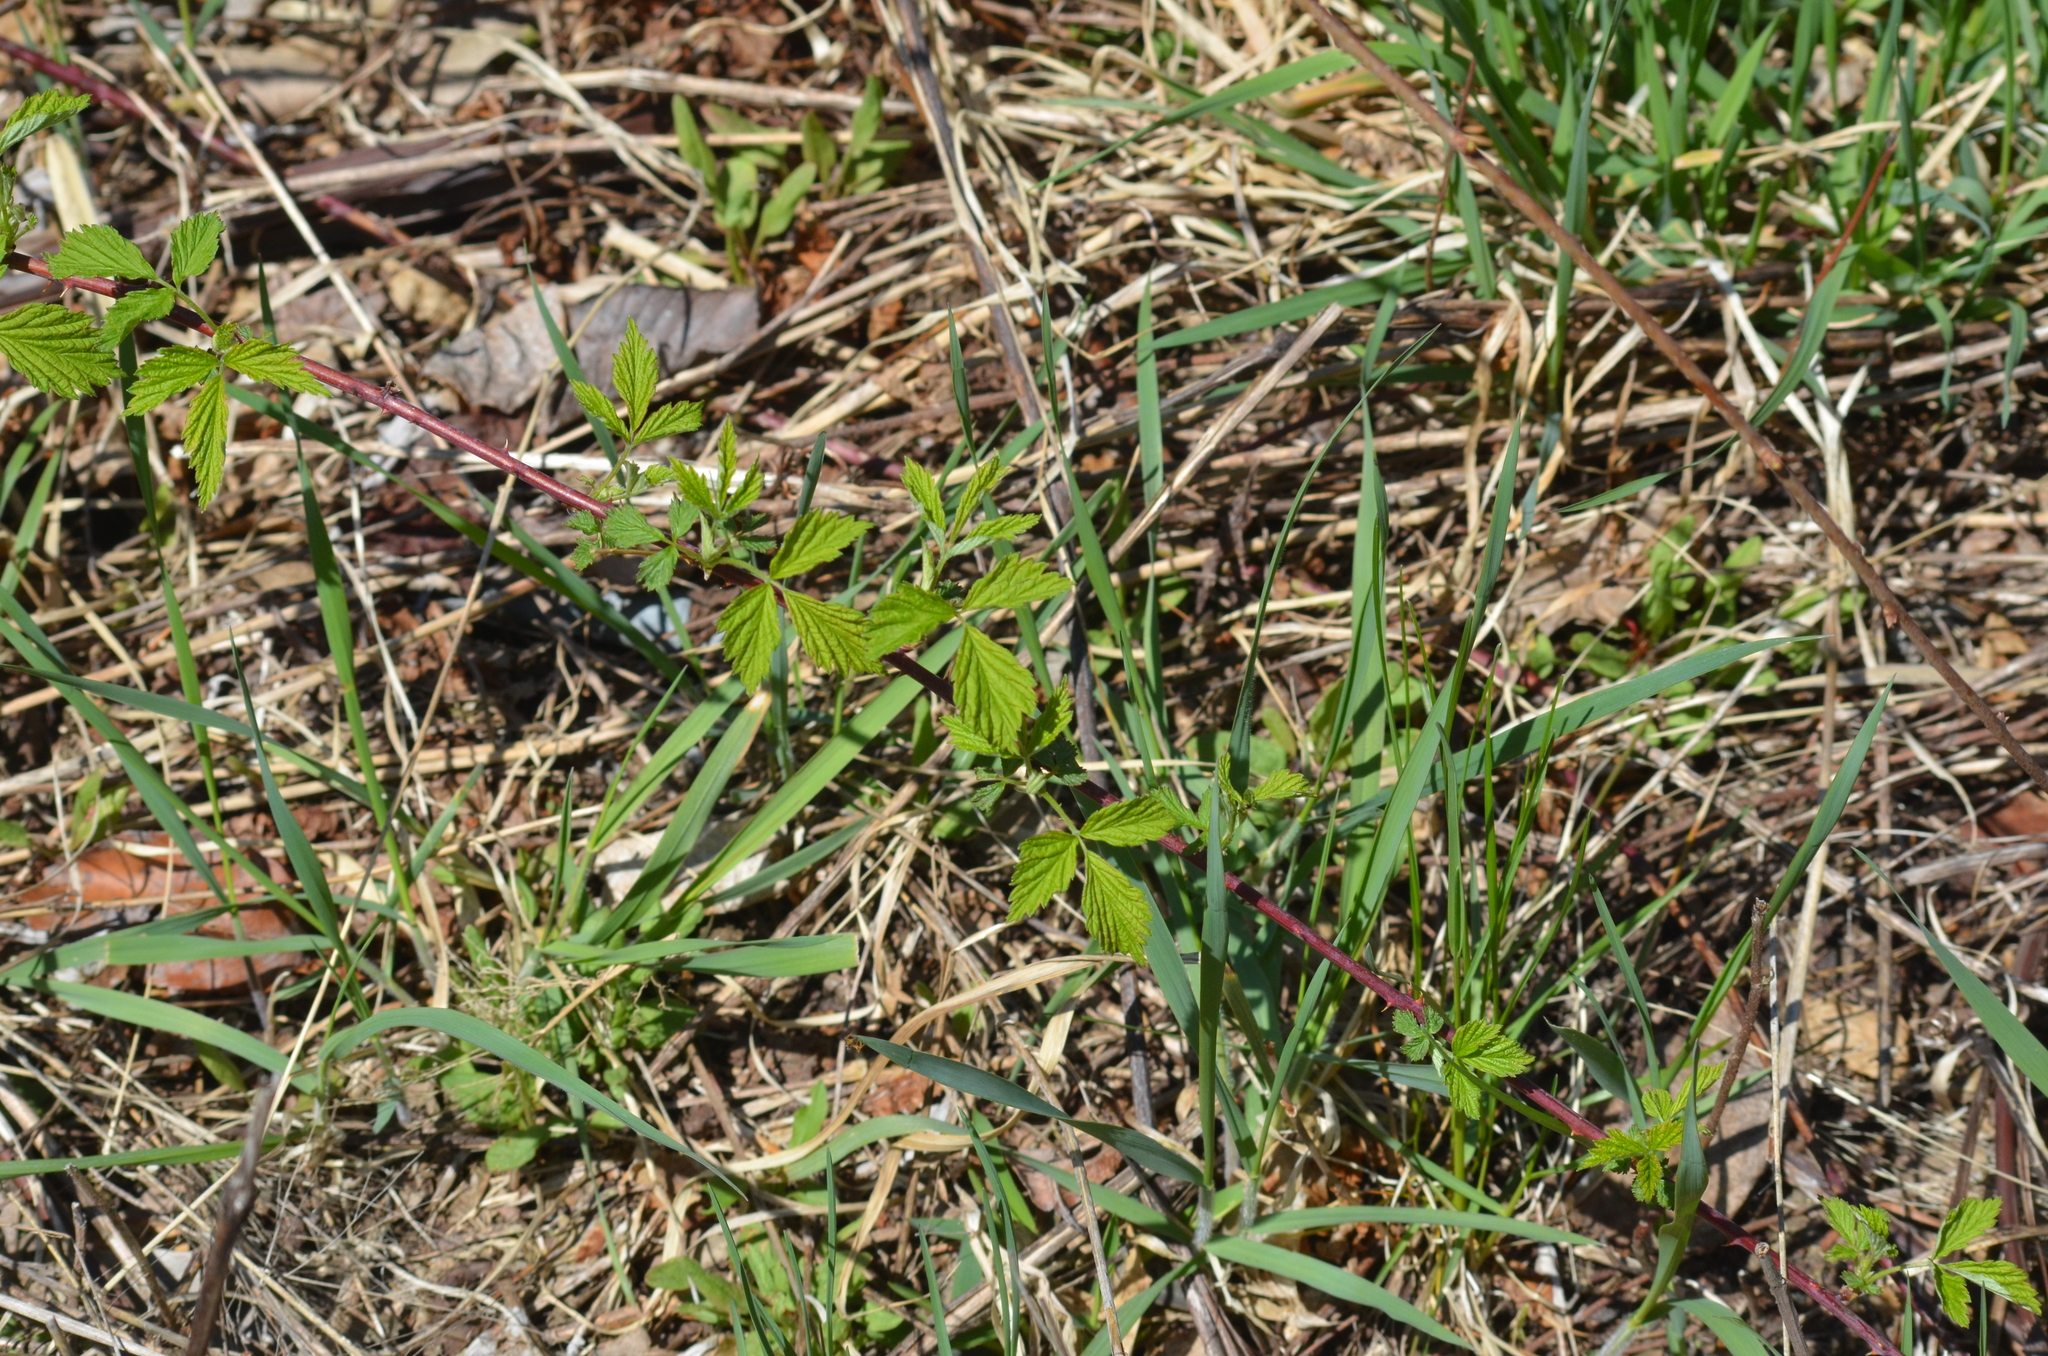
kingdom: Plantae
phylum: Tracheophyta
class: Magnoliopsida
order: Rosales
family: Rosaceae
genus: Rubus
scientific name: Rubus flagellaris
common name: American dewberry
